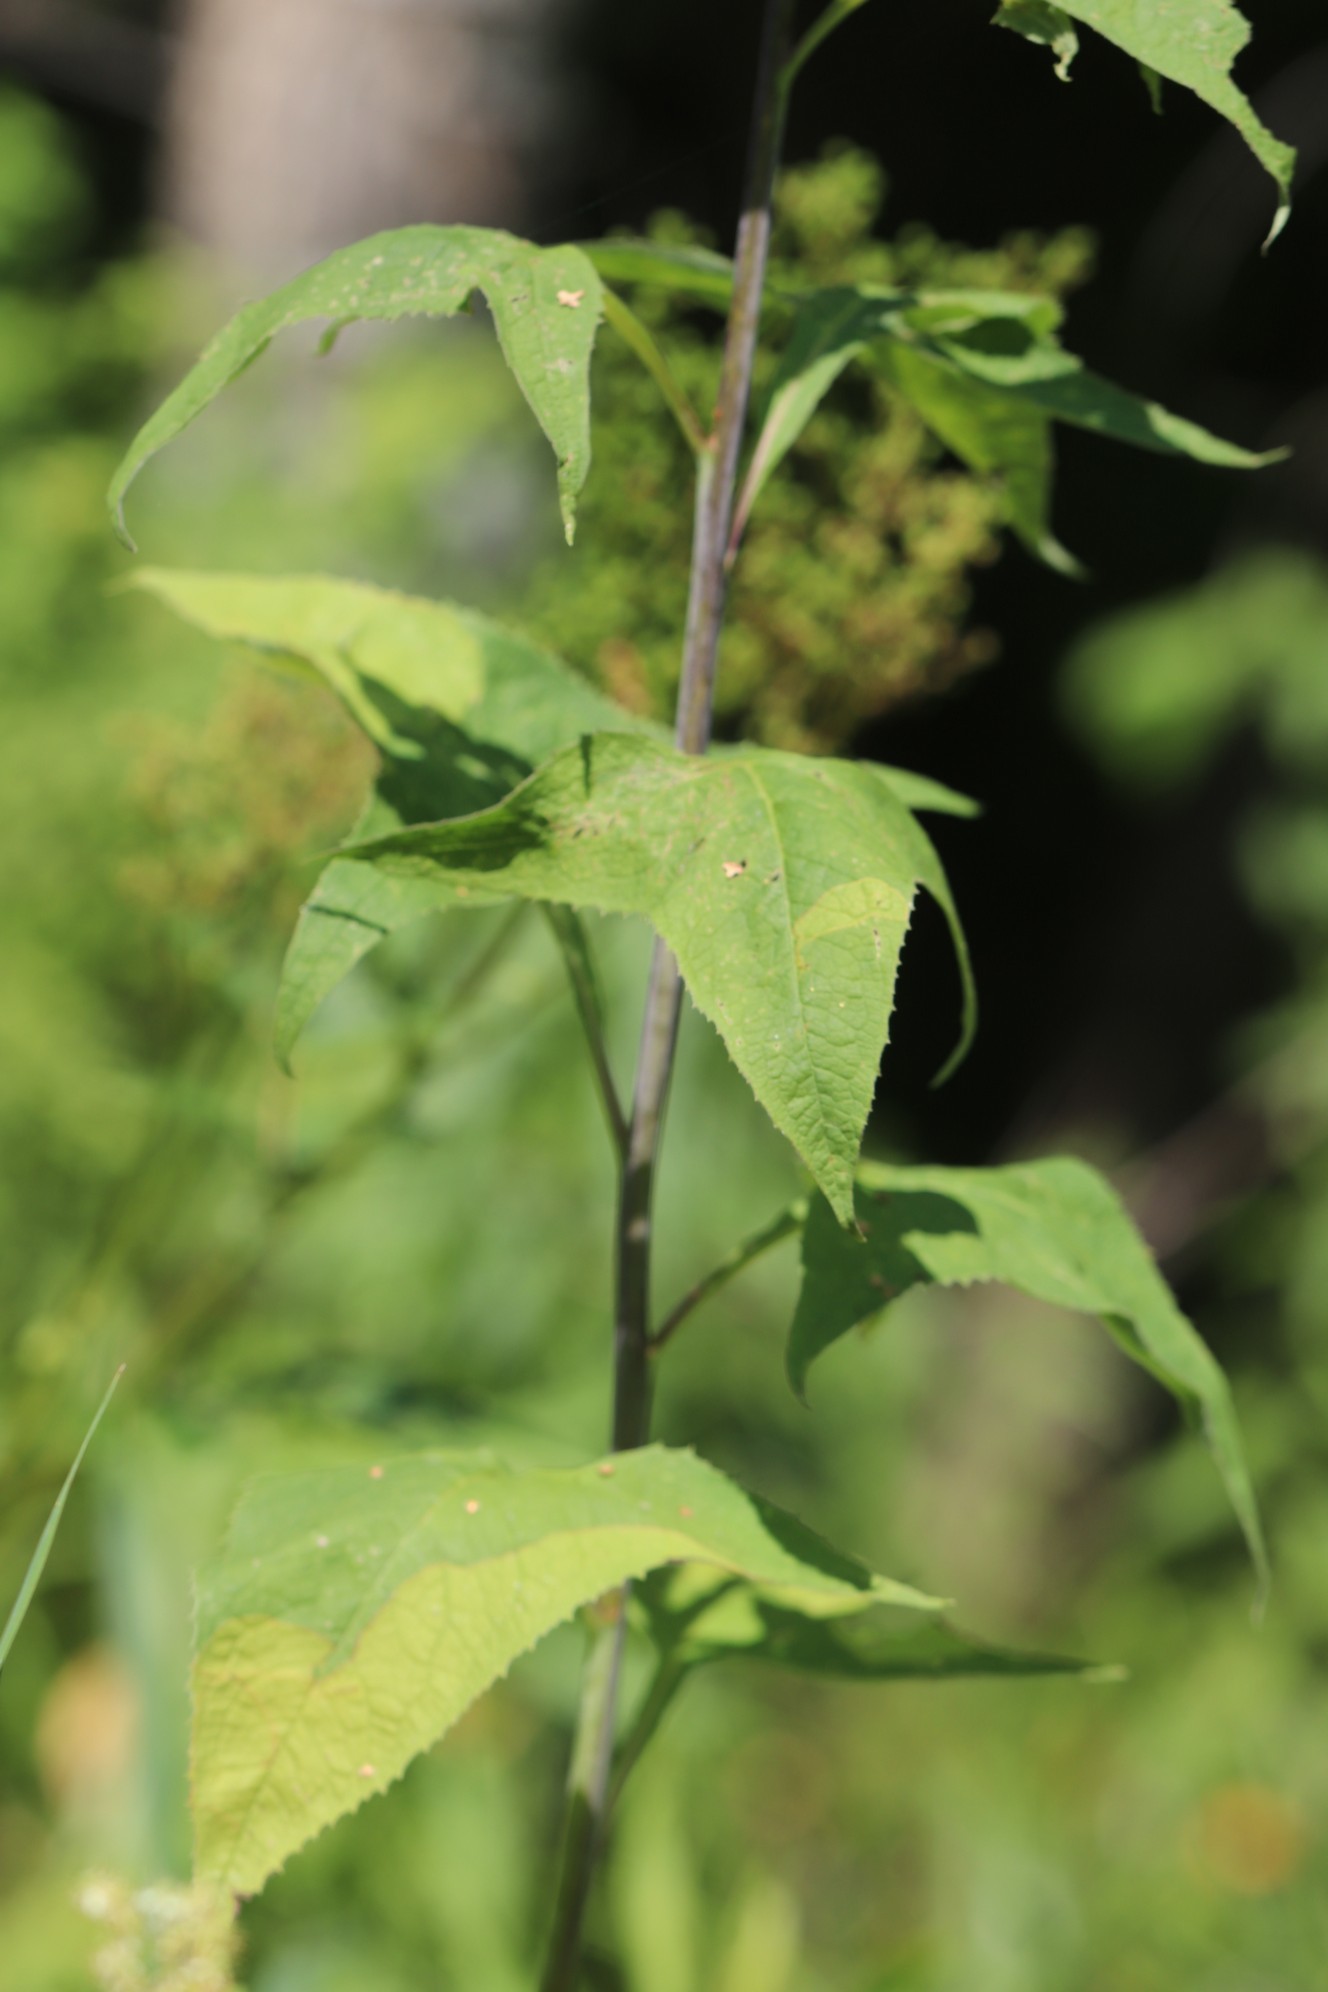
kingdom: Plantae
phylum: Tracheophyta
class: Magnoliopsida
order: Asterales
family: Asteraceae
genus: Parasenecio
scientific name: Parasenecio hastatus
